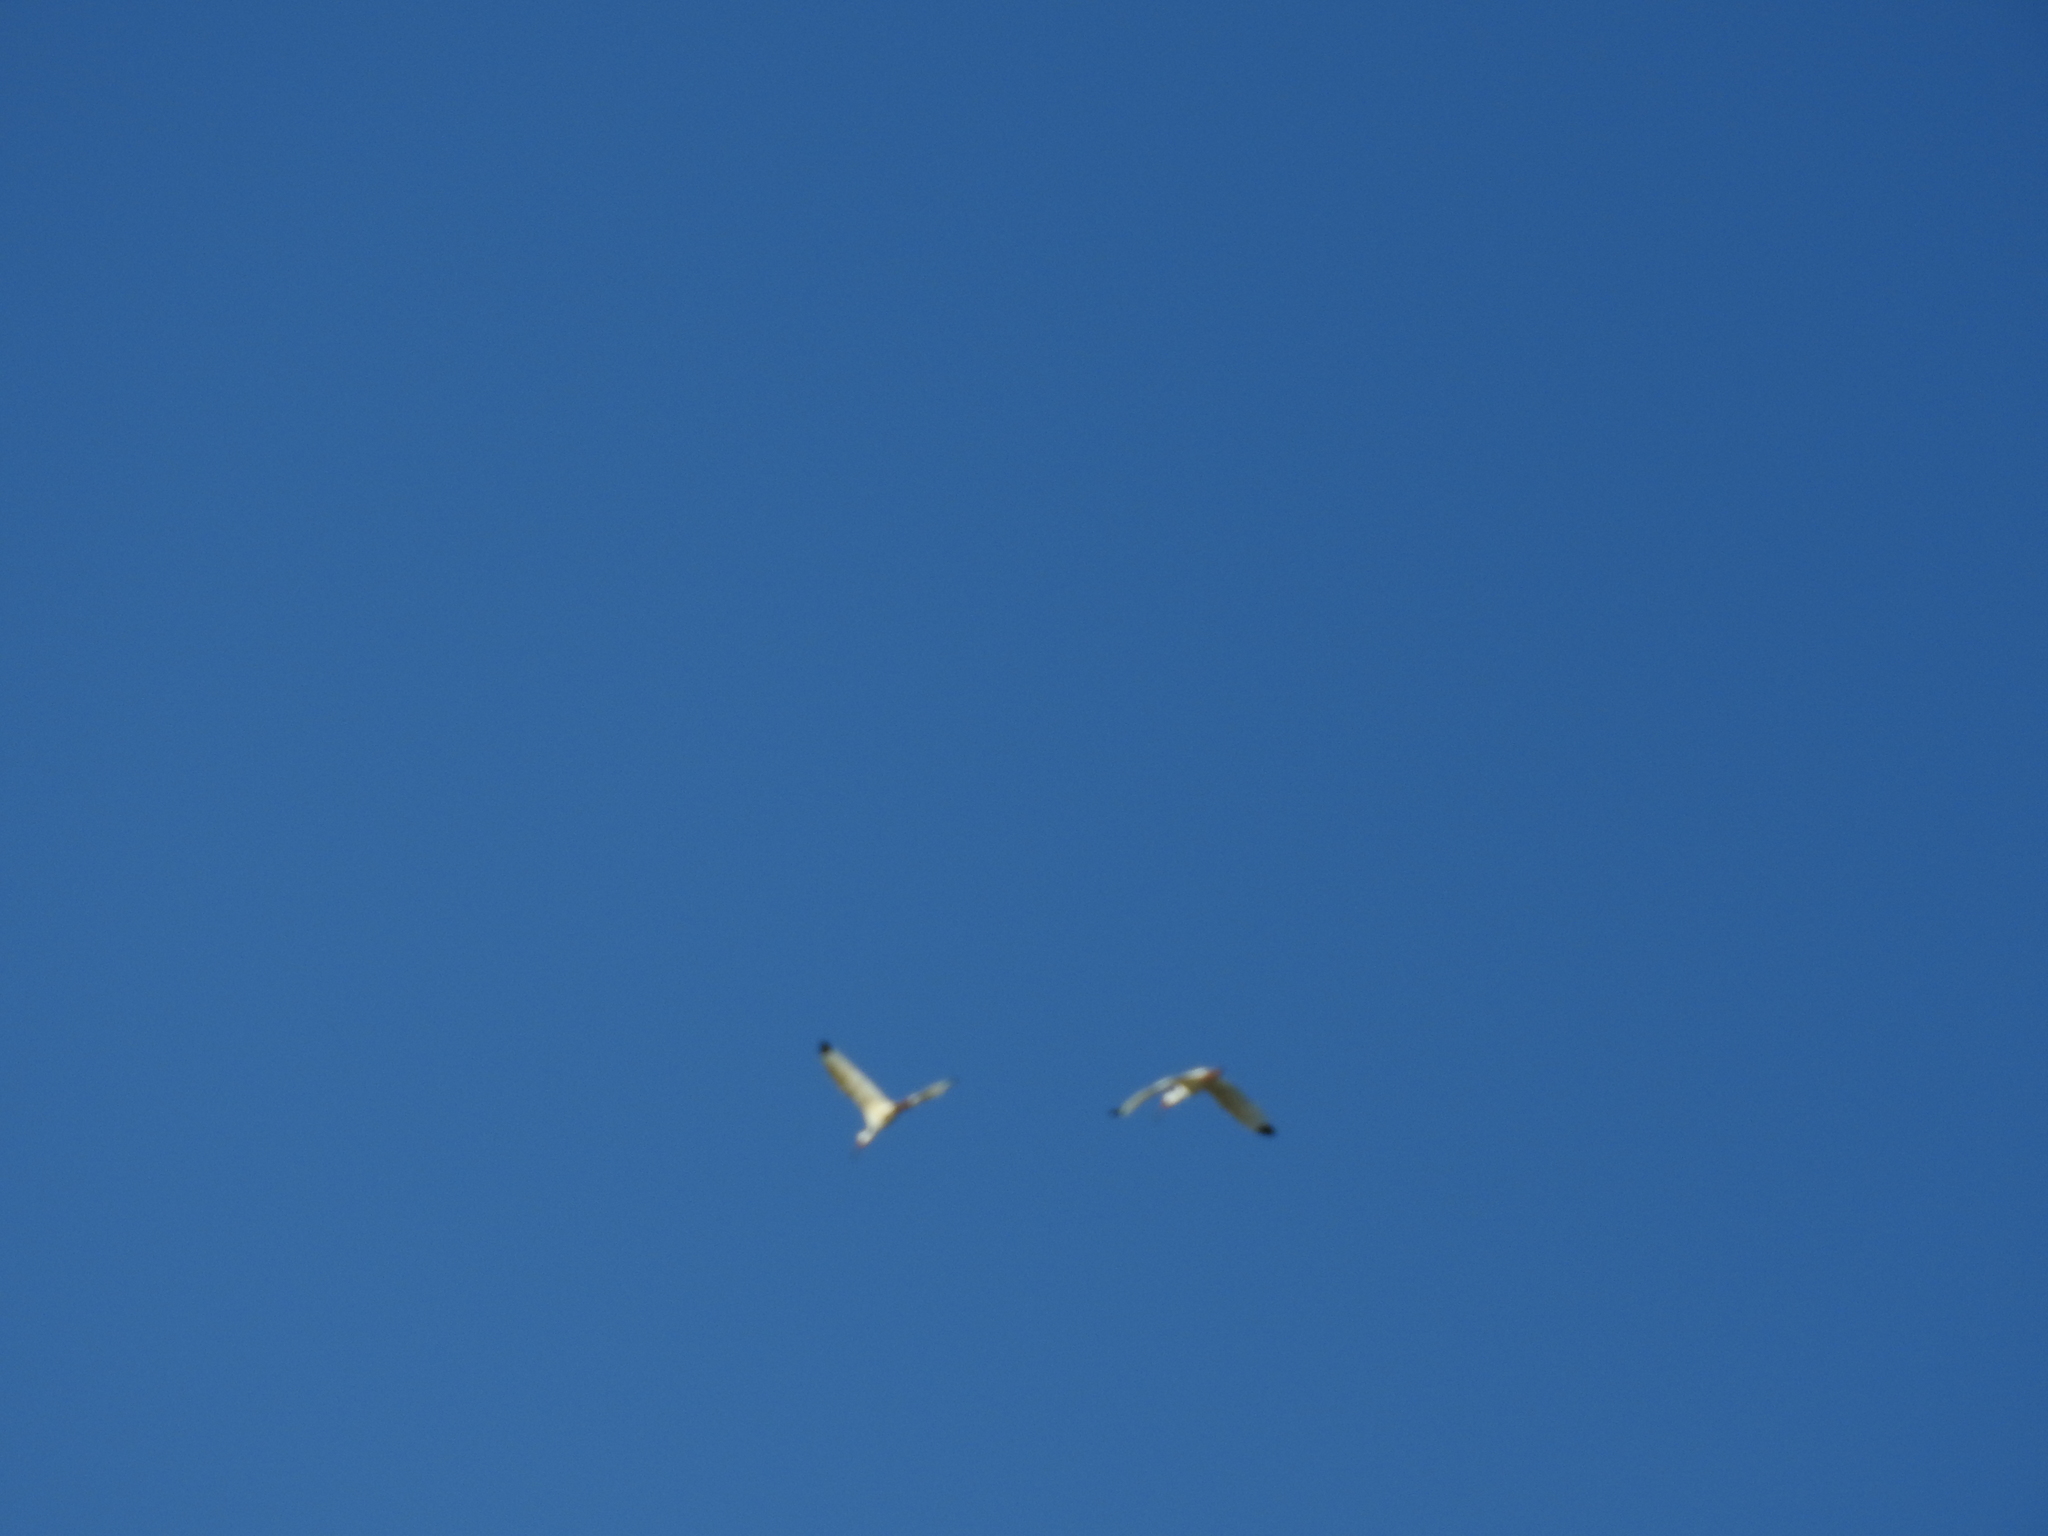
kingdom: Animalia
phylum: Chordata
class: Aves
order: Pelecaniformes
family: Threskiornithidae
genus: Eudocimus
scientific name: Eudocimus albus
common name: White ibis
